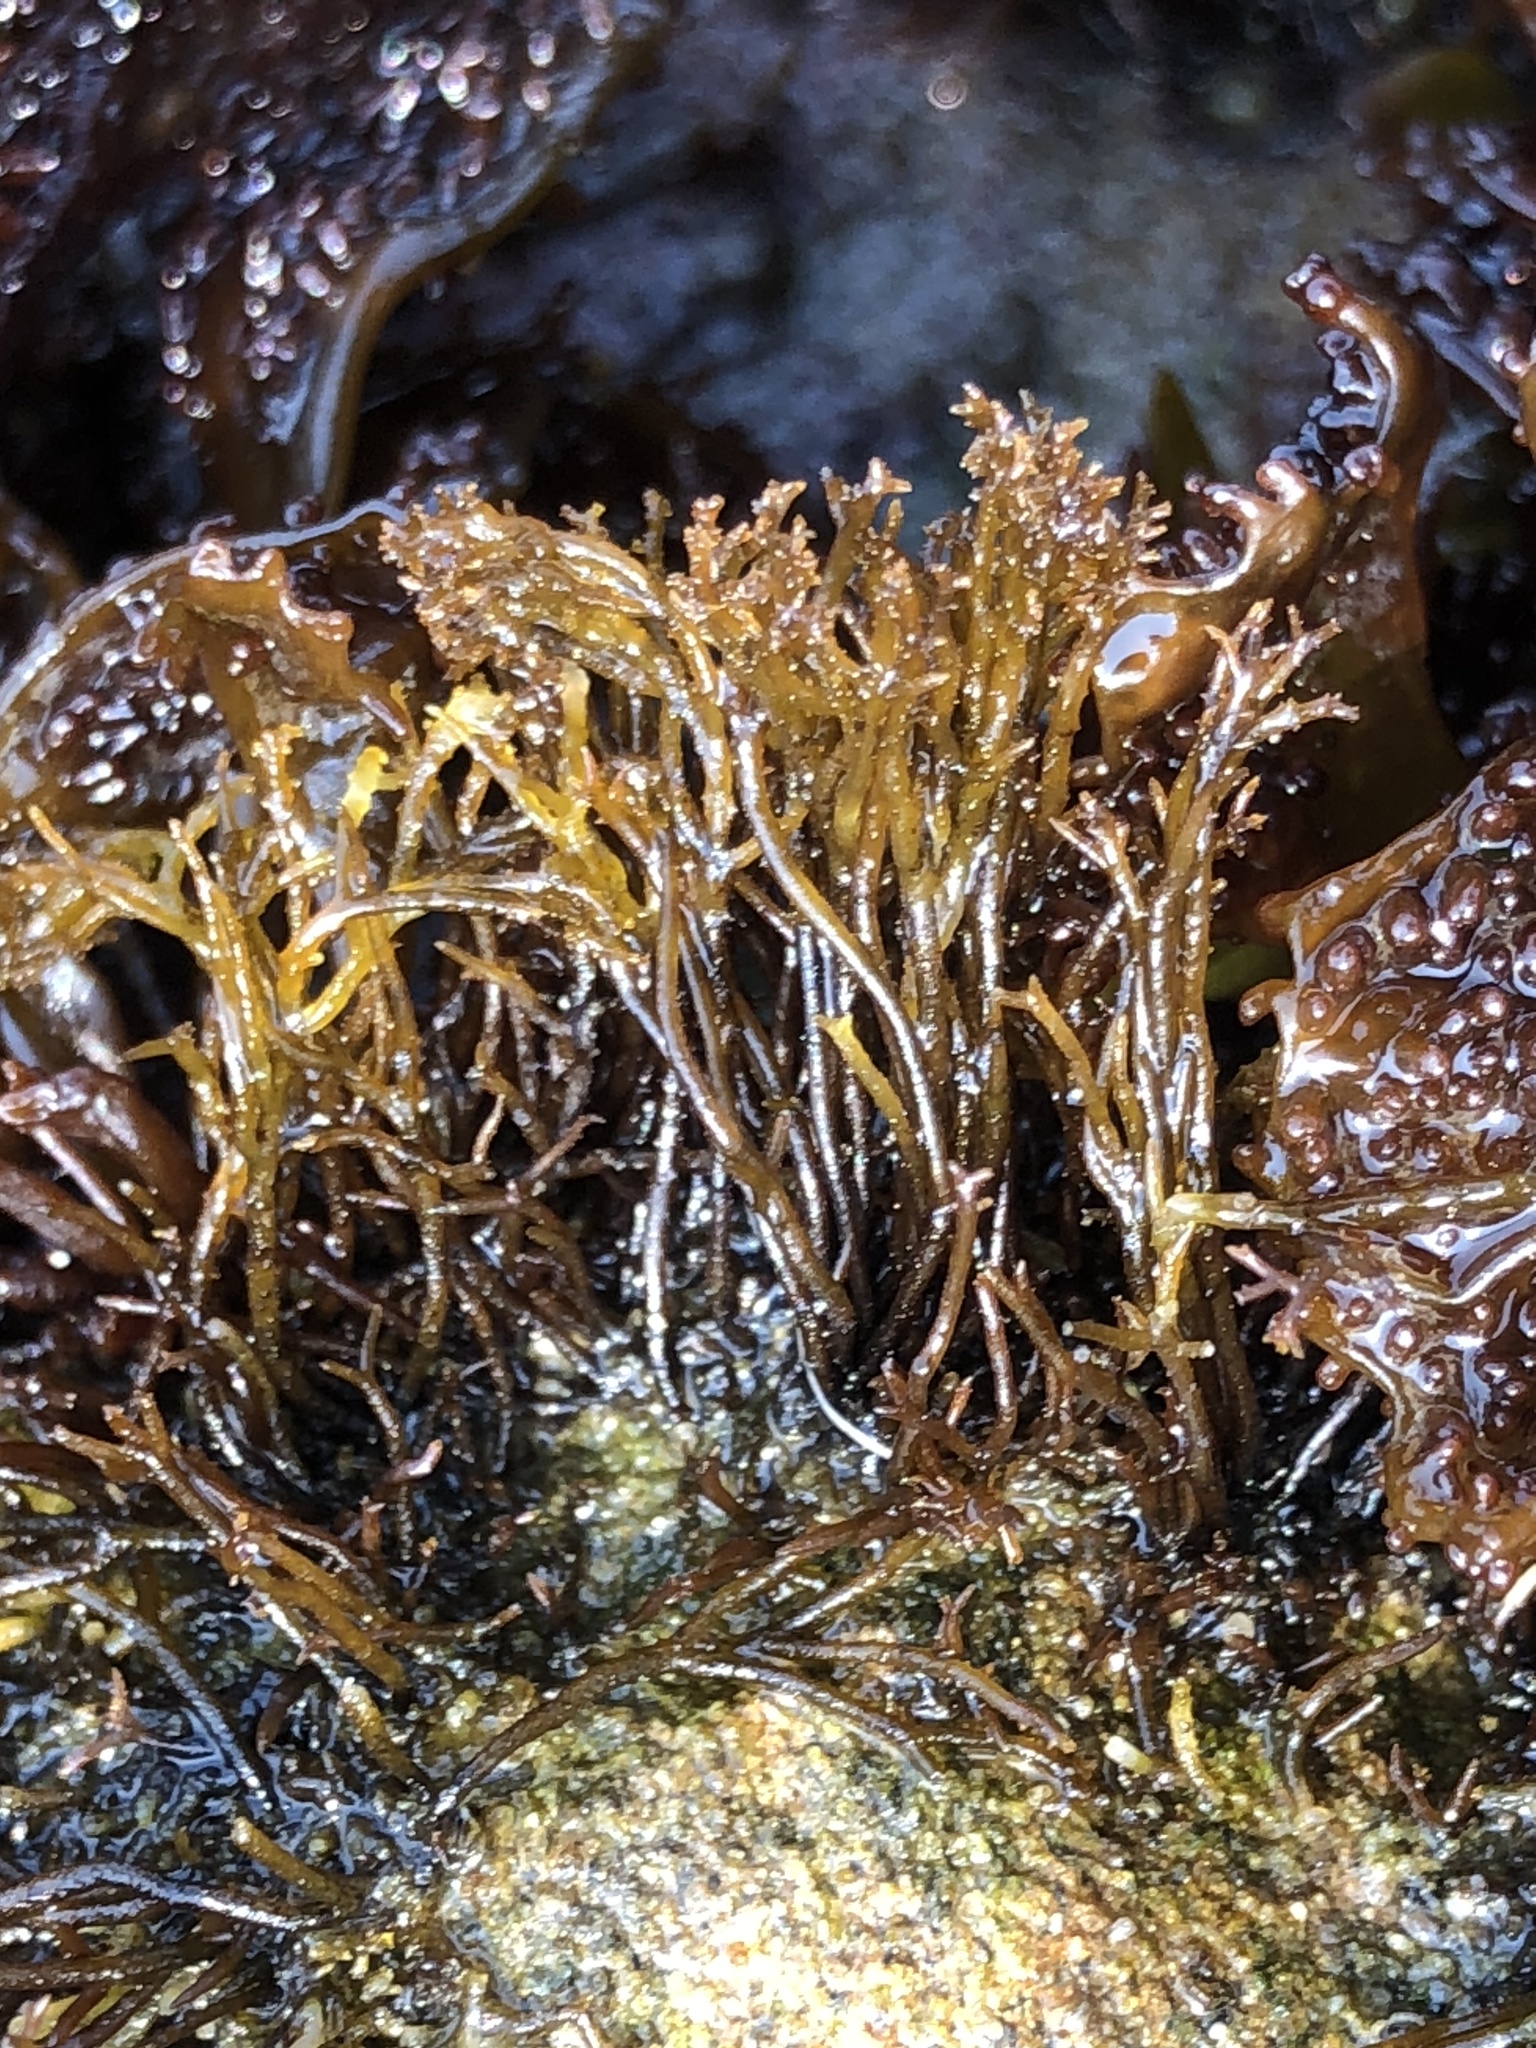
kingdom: Plantae
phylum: Rhodophyta
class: Florideophyceae
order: Gigartinales
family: Endocladiaceae
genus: Endocladia
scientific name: Endocladia muricata
